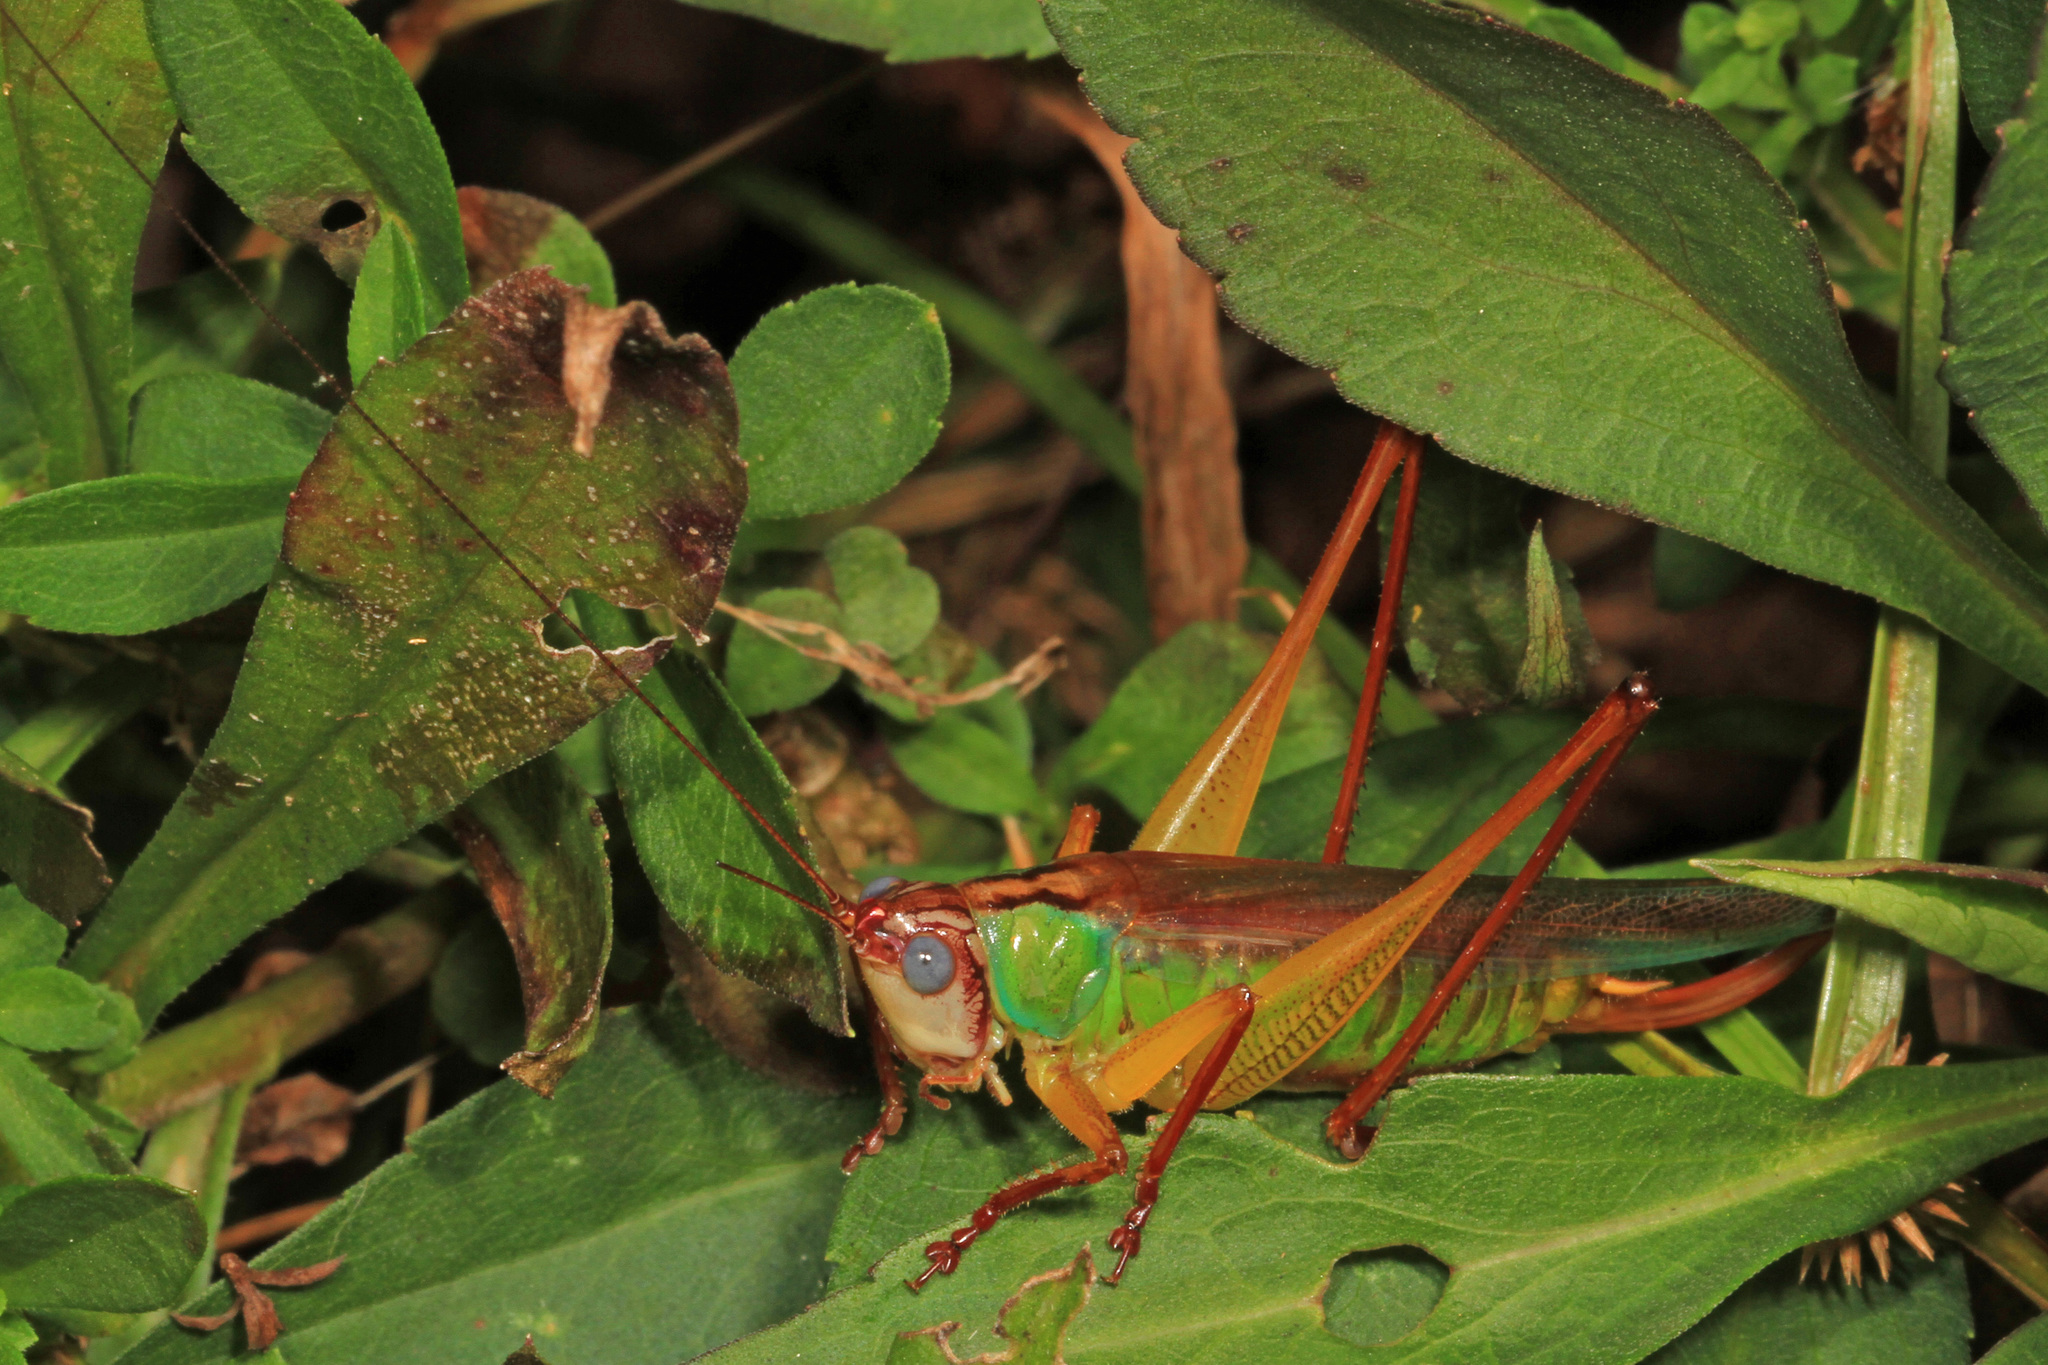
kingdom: Animalia
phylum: Arthropoda
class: Insecta
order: Orthoptera
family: Tettigoniidae
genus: Orchelimum
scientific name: Orchelimum pulchellum
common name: Handsome meadow katydid
